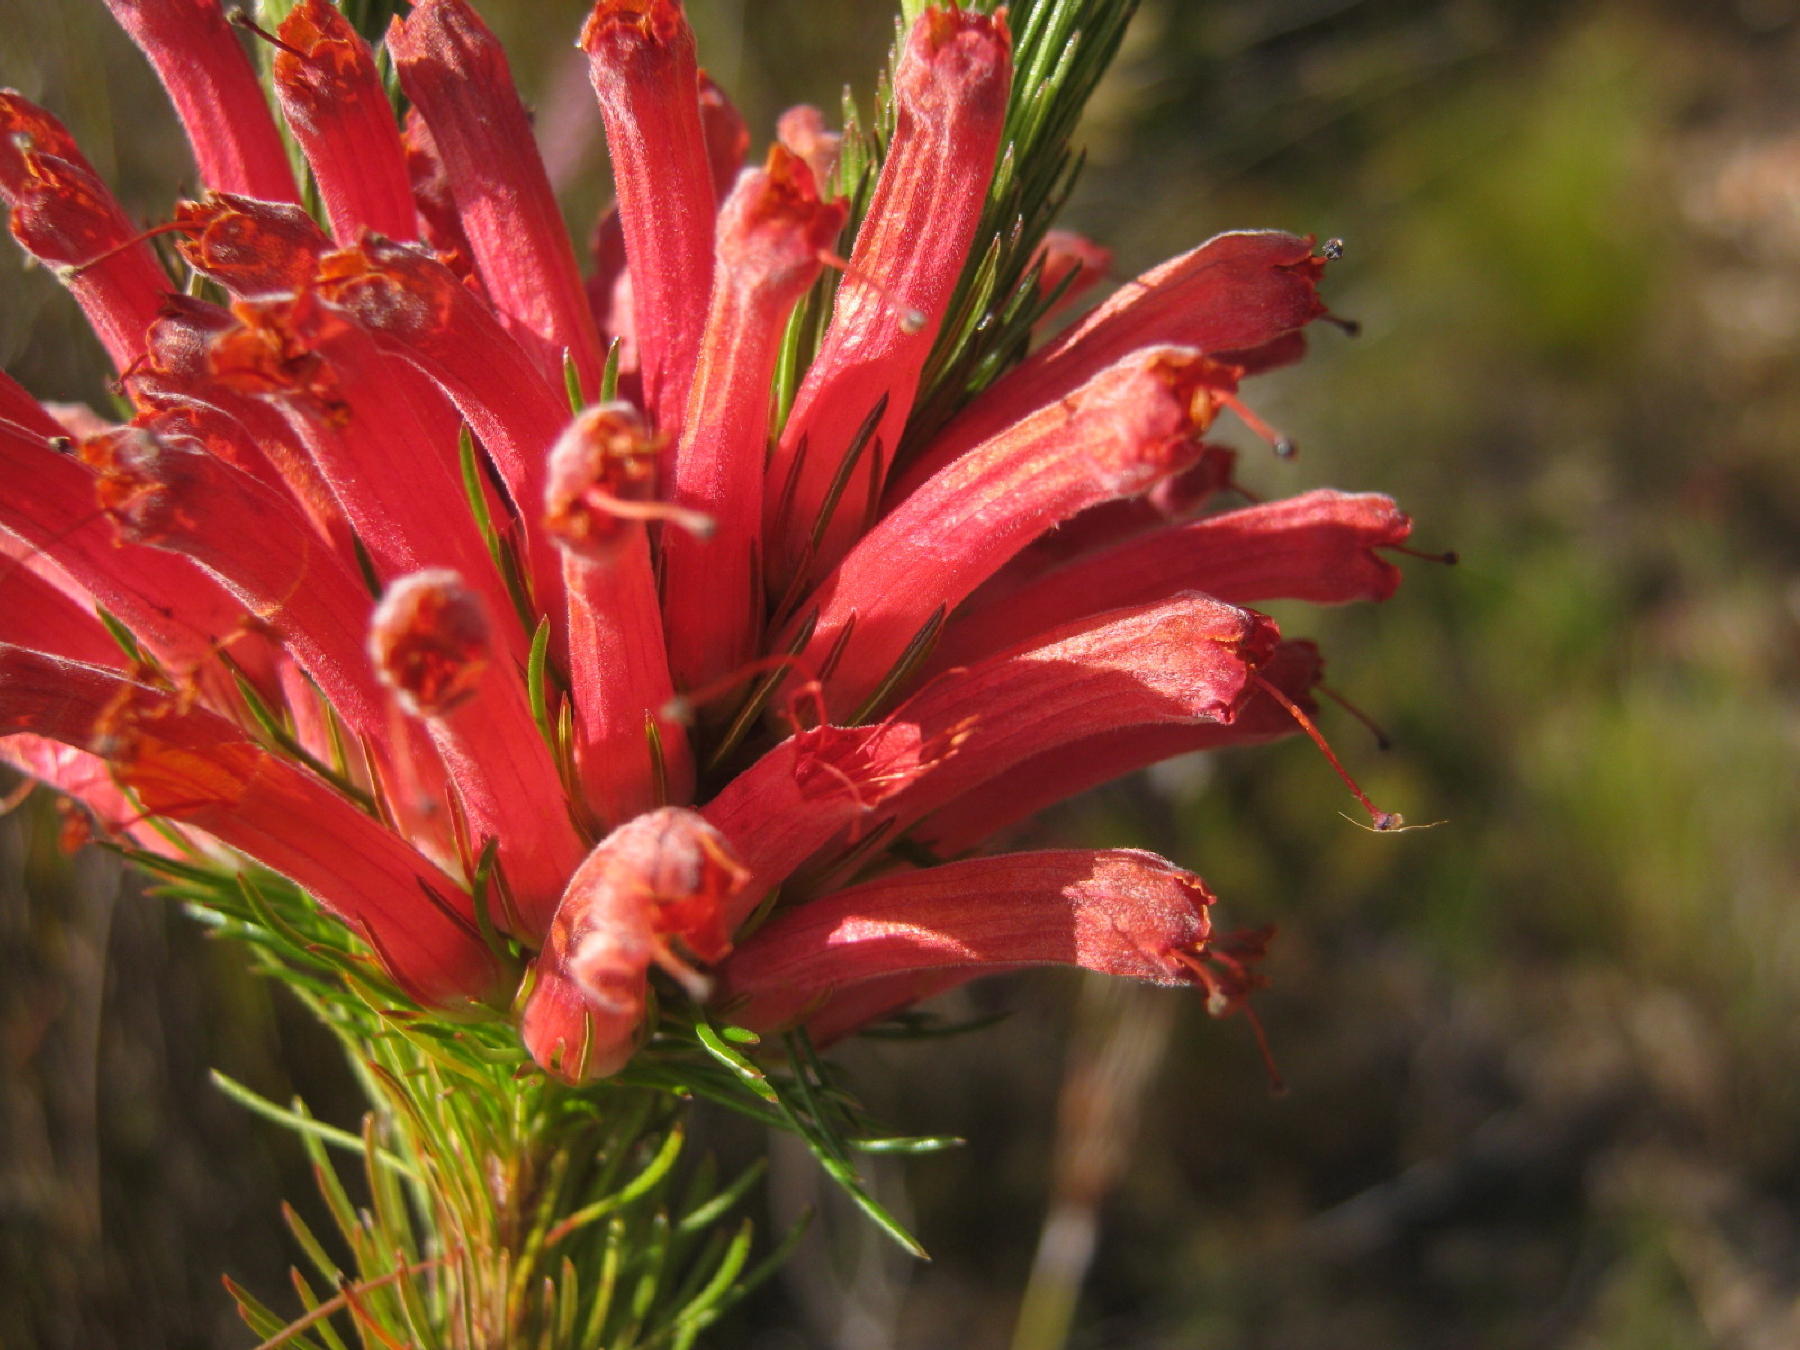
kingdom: Plantae
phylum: Tracheophyta
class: Magnoliopsida
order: Ericales
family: Ericaceae
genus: Erica
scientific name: Erica vestita
